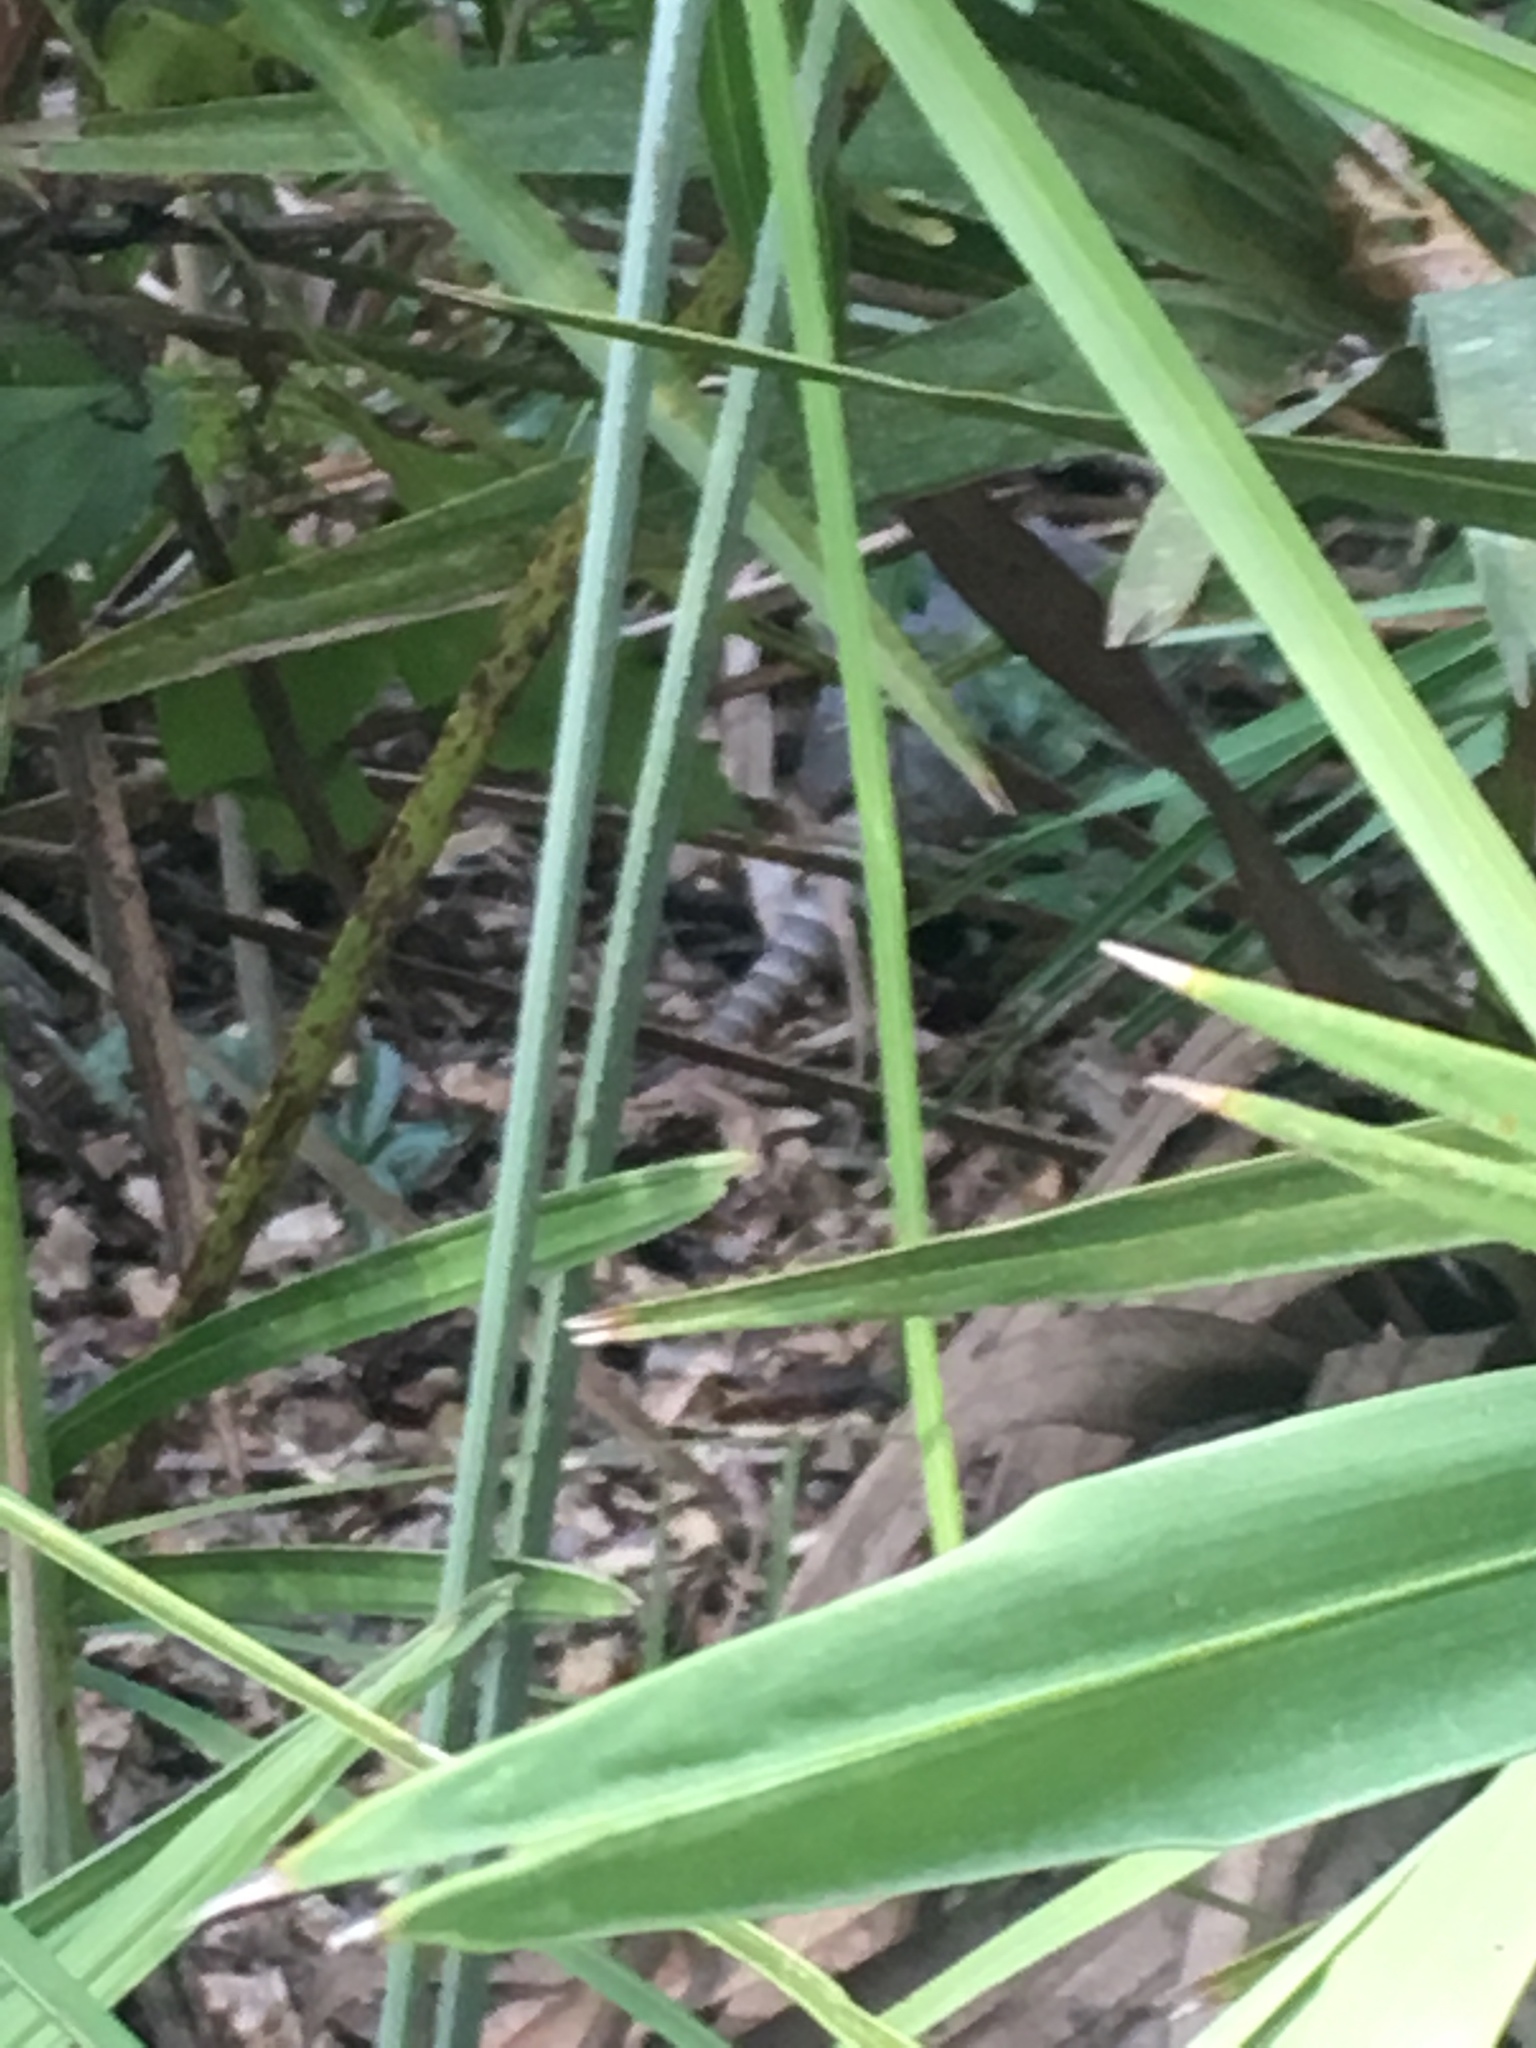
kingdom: Animalia
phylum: Chordata
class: Mammalia
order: Cingulata
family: Dasypodidae
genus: Dasypus
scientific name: Dasypus novemcinctus
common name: Nine-banded armadillo
